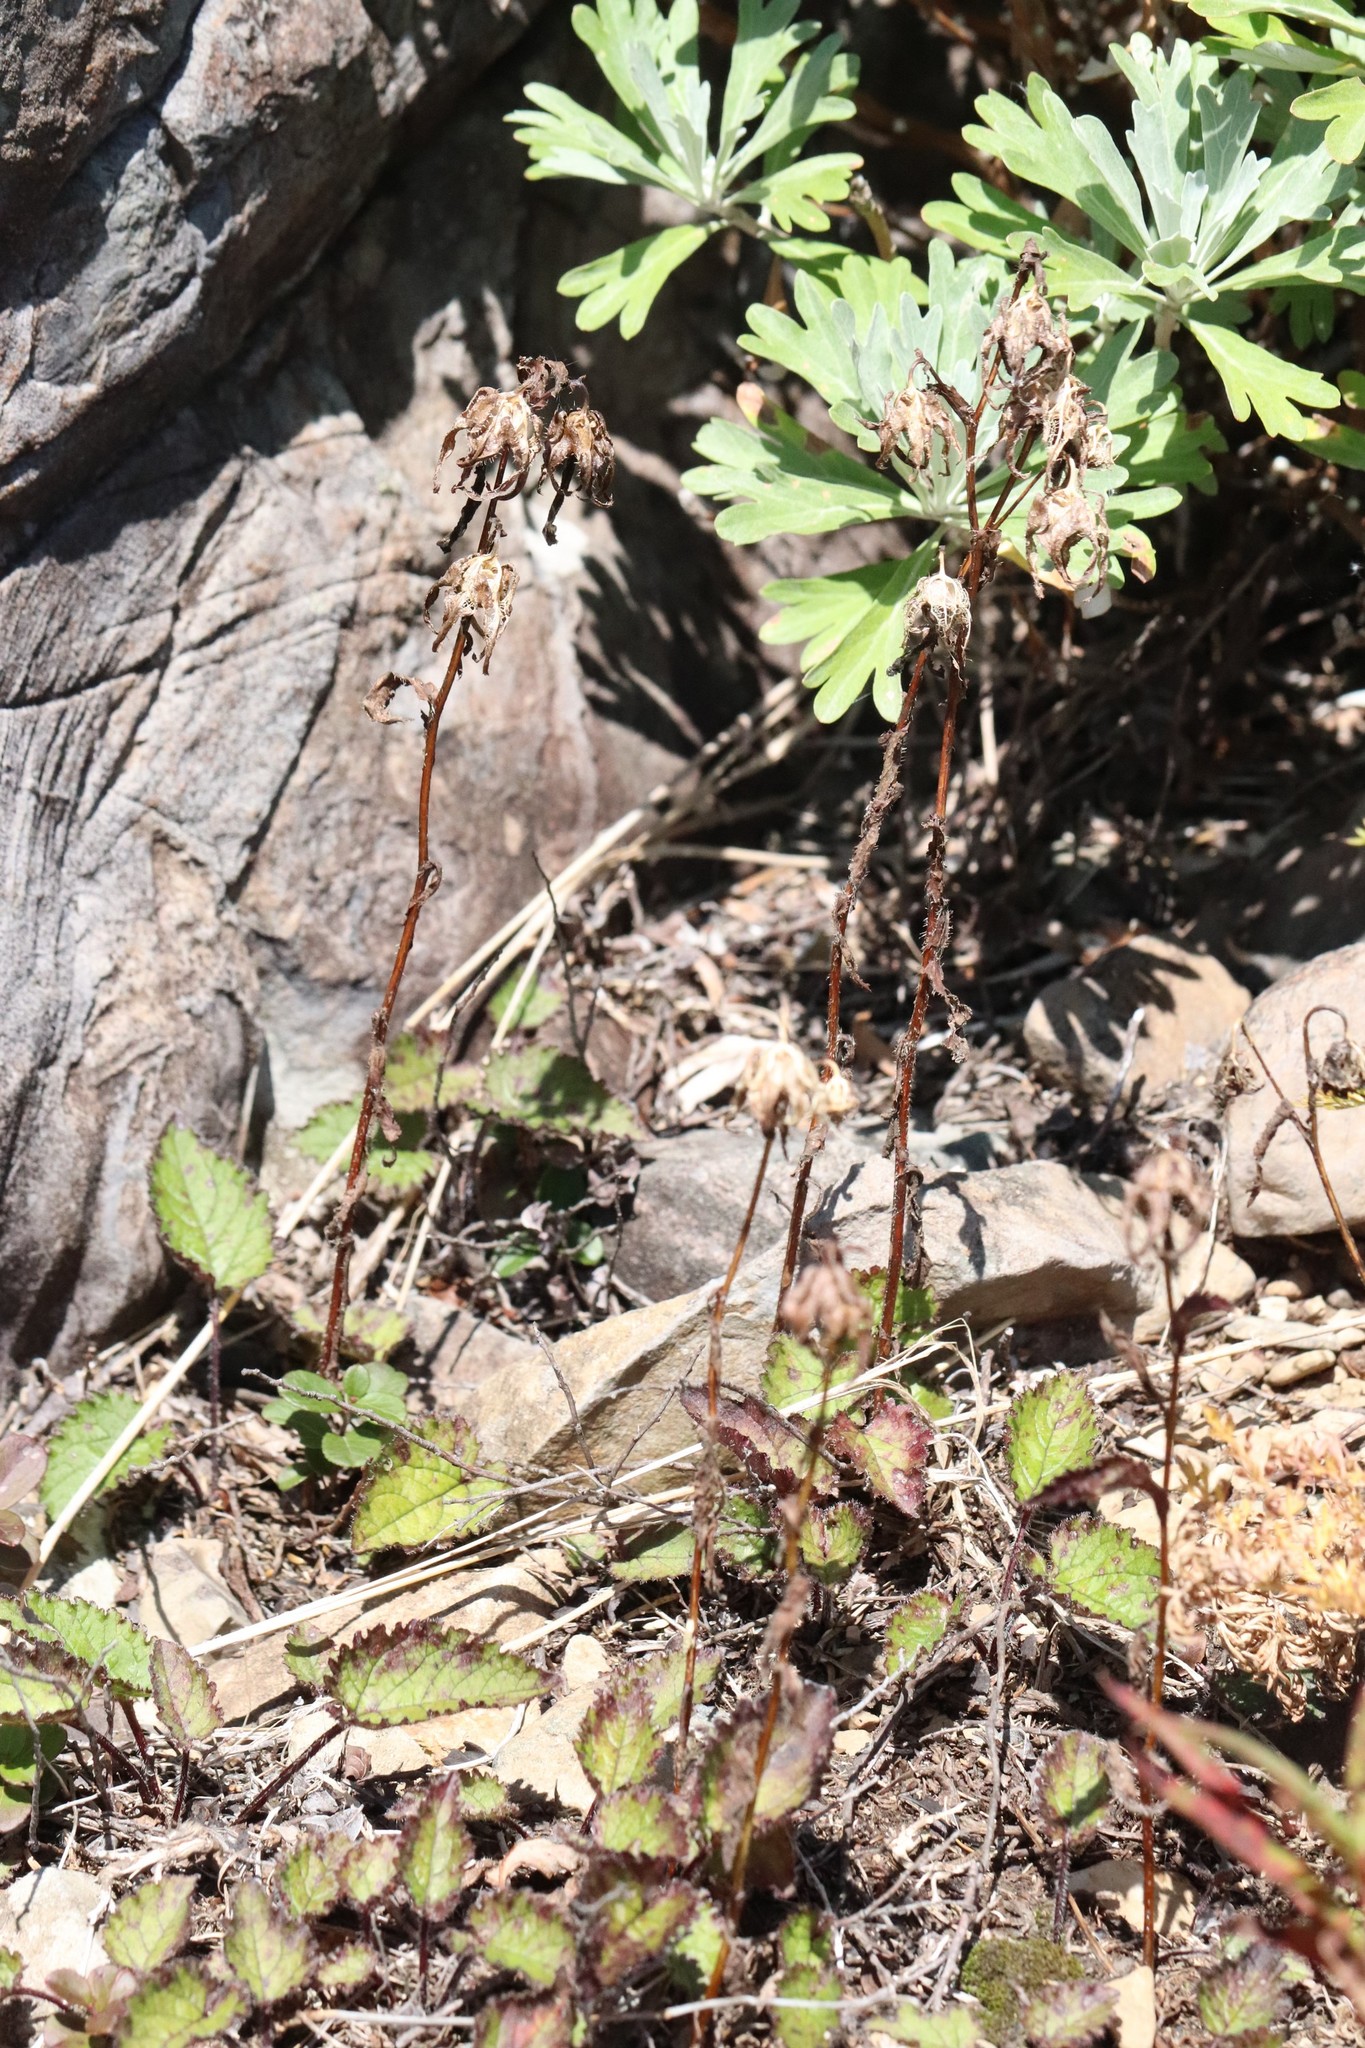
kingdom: Plantae
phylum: Tracheophyta
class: Magnoliopsida
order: Asterales
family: Campanulaceae
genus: Campanula
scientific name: Campanula punctata
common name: Spotted bellflower
